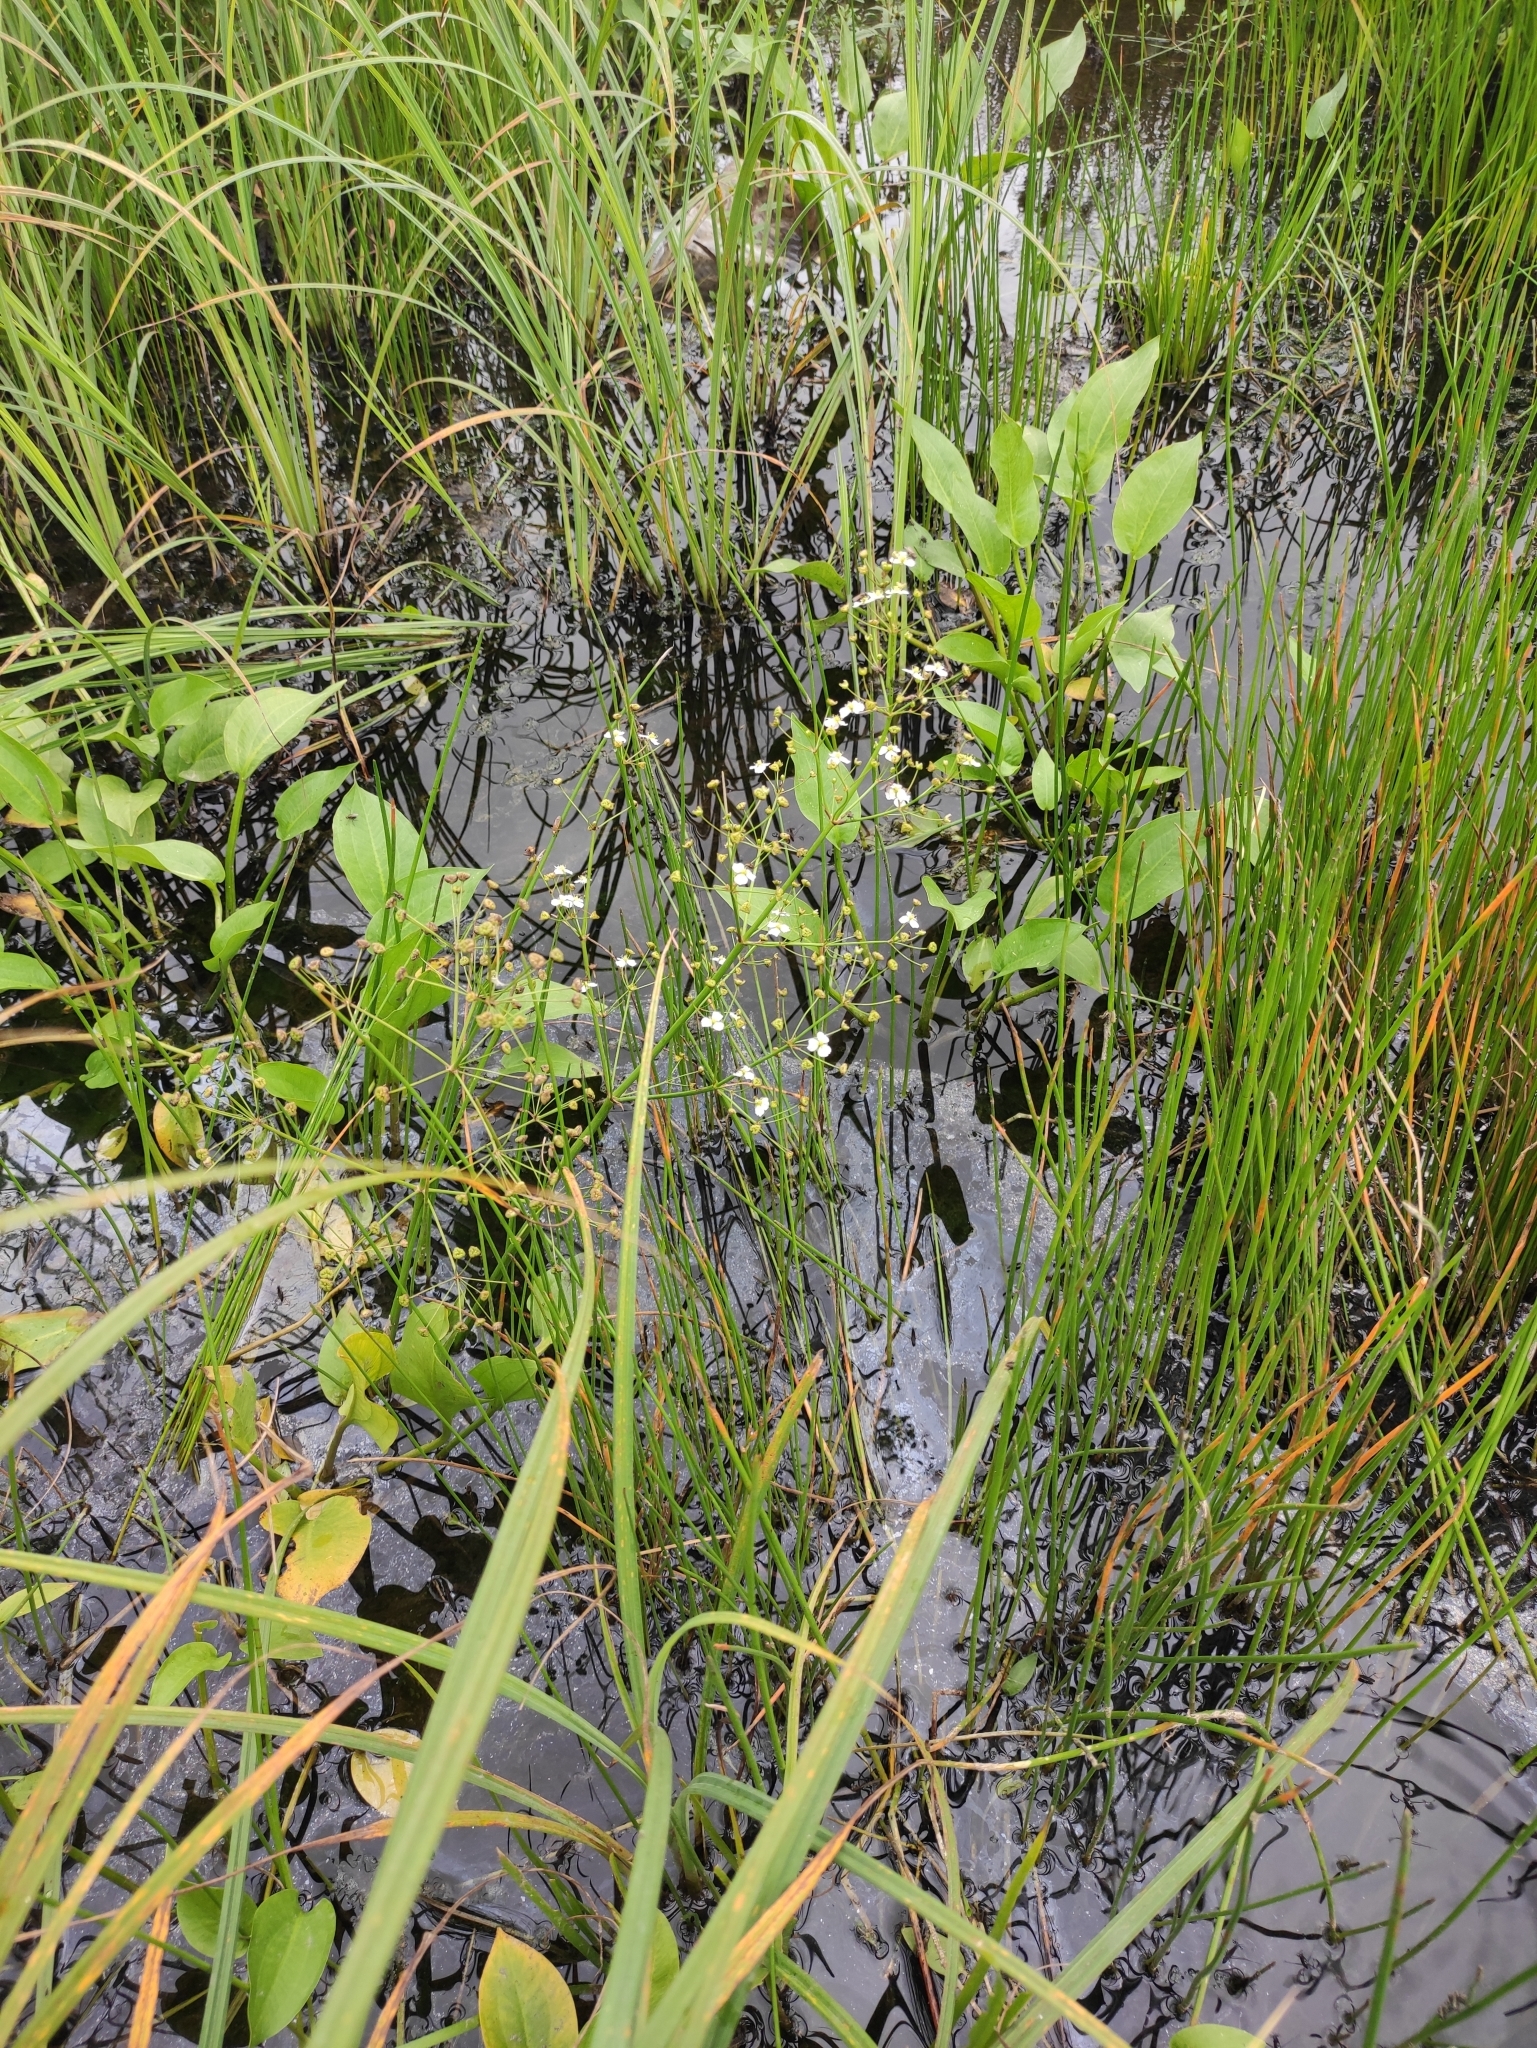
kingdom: Plantae
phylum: Tracheophyta
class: Liliopsida
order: Alismatales
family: Alismataceae
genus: Alisma
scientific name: Alisma plantago-aquatica
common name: Water-plantain
